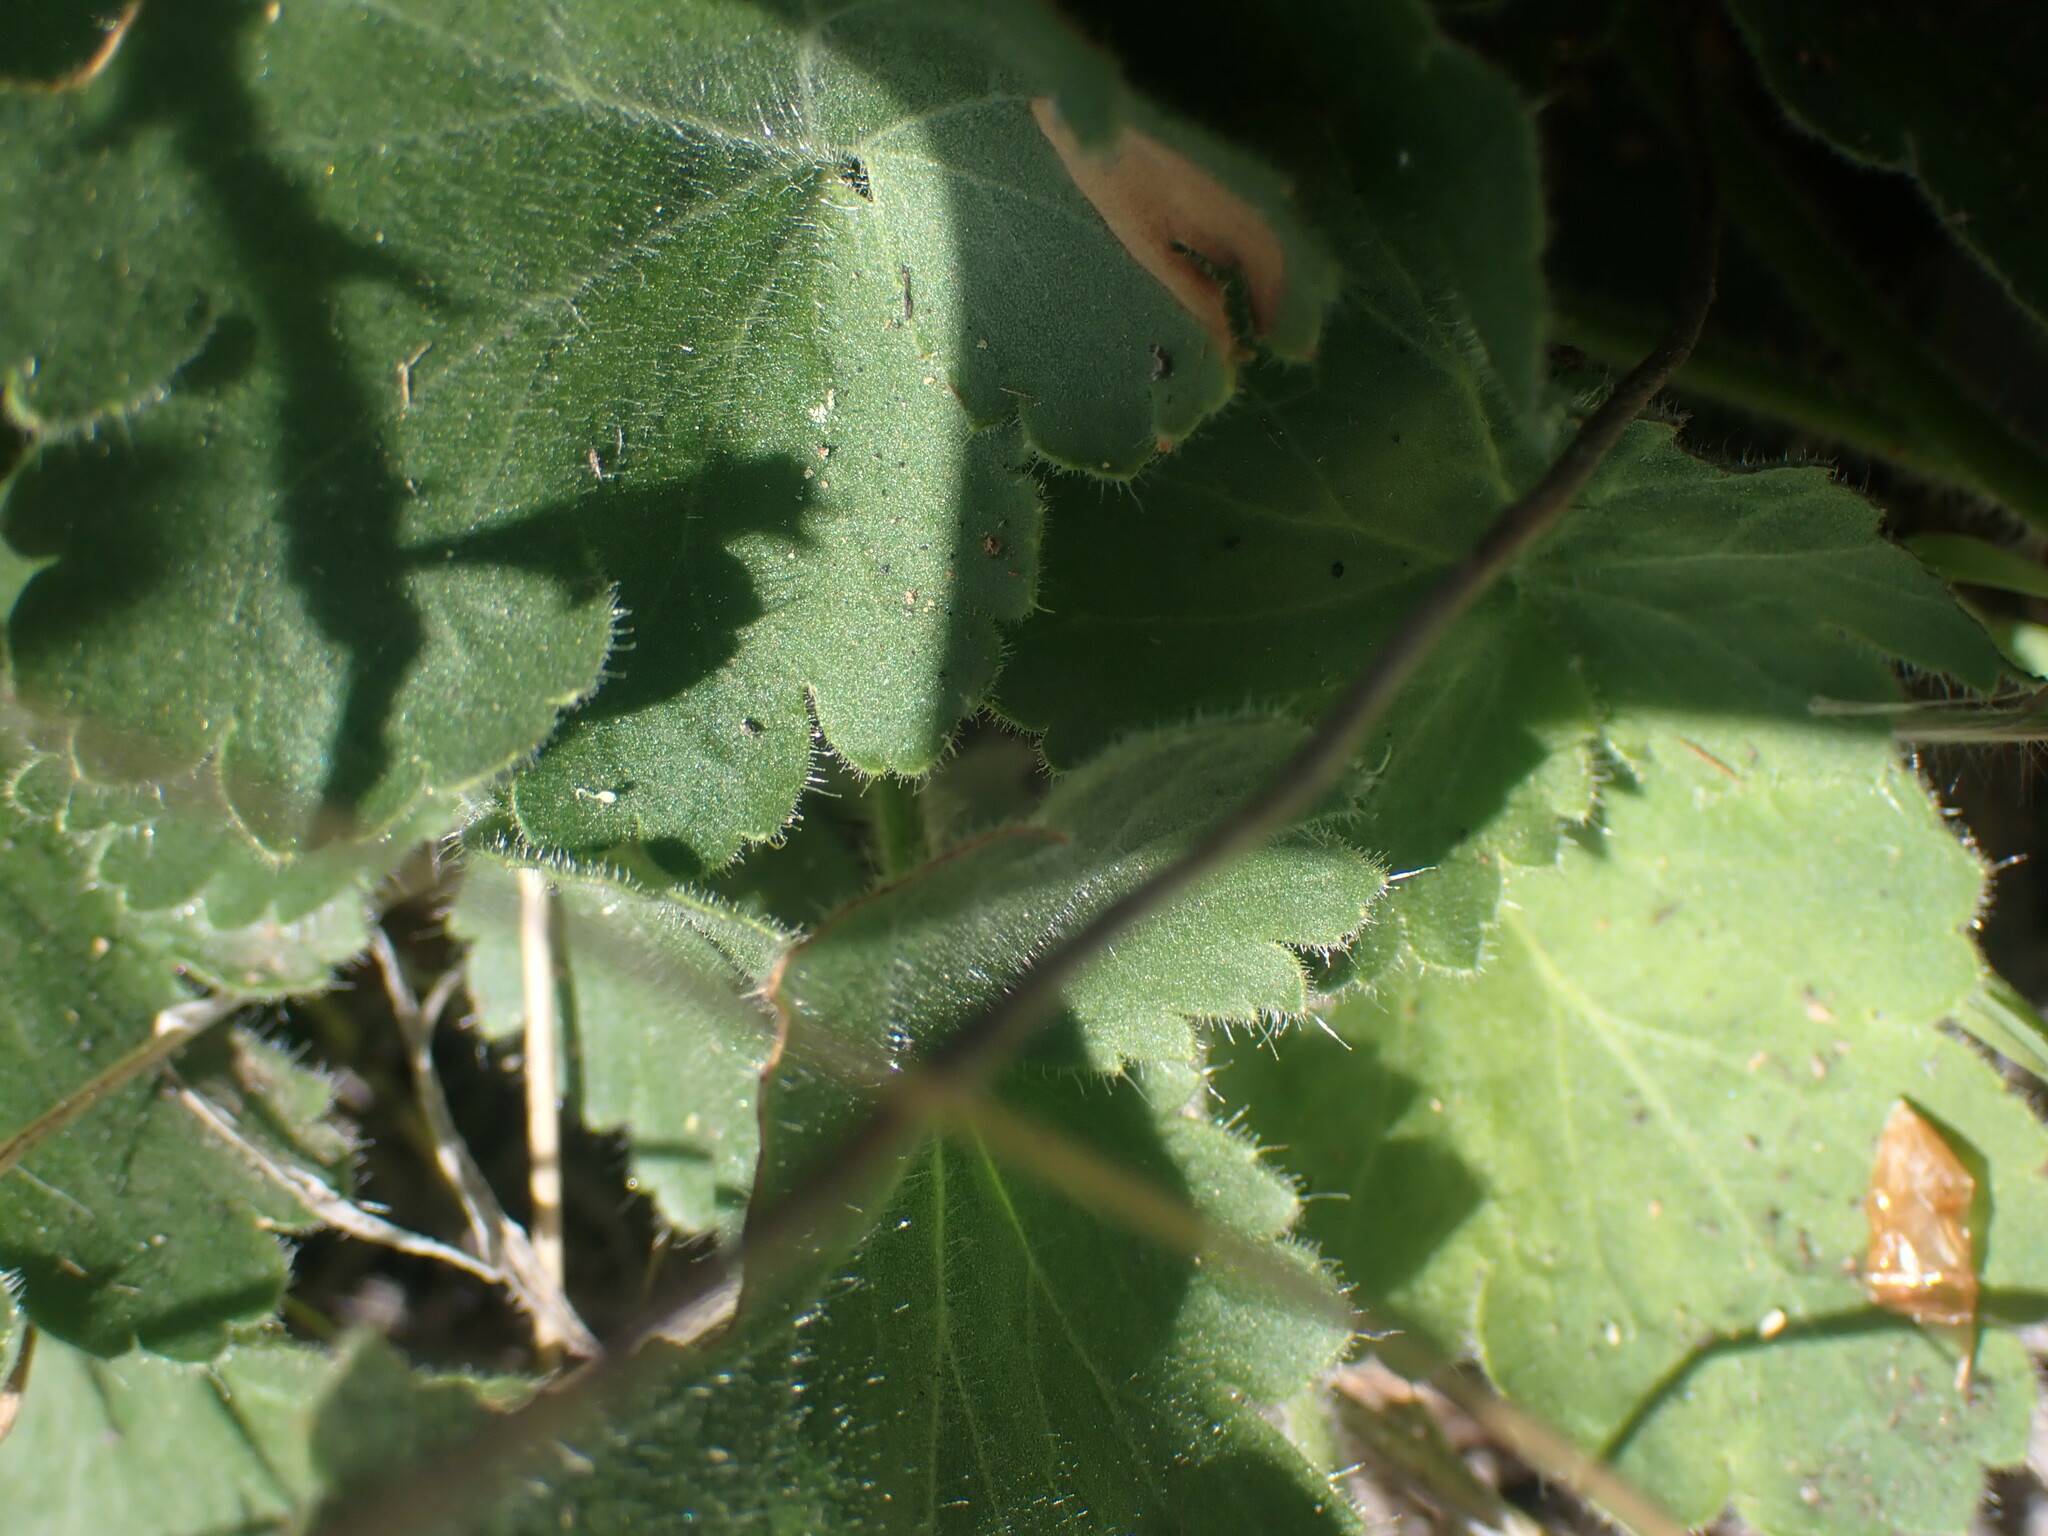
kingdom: Plantae
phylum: Tracheophyta
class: Magnoliopsida
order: Saxifragales
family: Saxifragaceae
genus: Heuchera
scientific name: Heuchera cylindrica
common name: Mat alumroot
